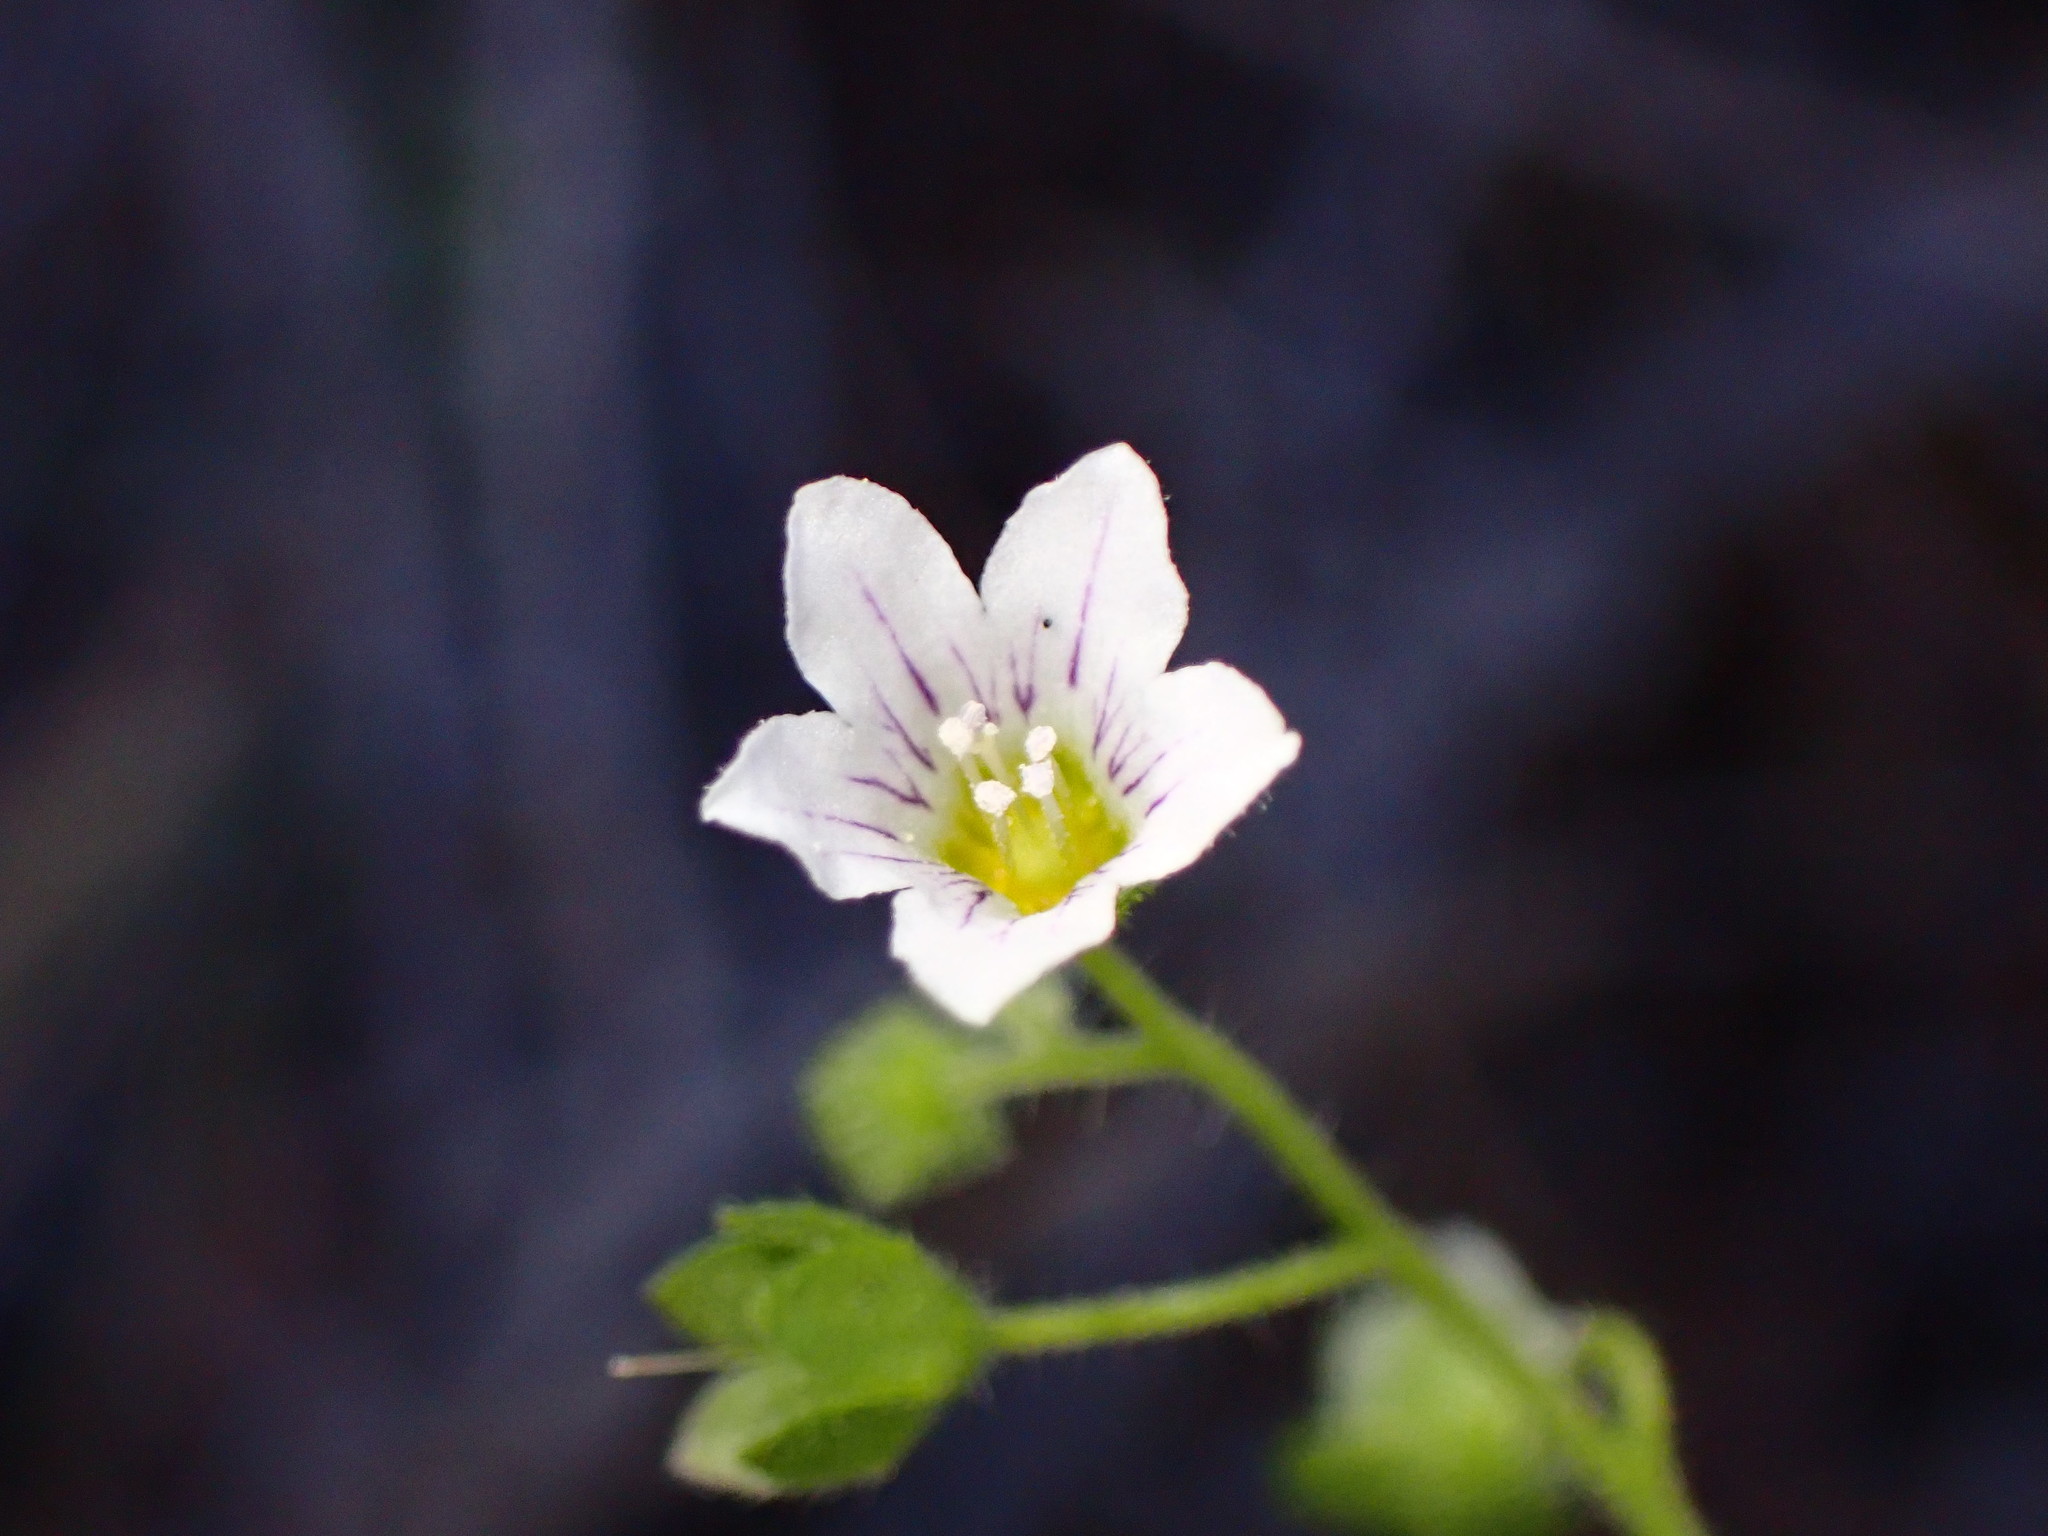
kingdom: Plantae
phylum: Tracheophyta
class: Magnoliopsida
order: Boraginales
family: Hydrophyllaceae
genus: Eucrypta
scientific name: Eucrypta chrysanthemifolia
